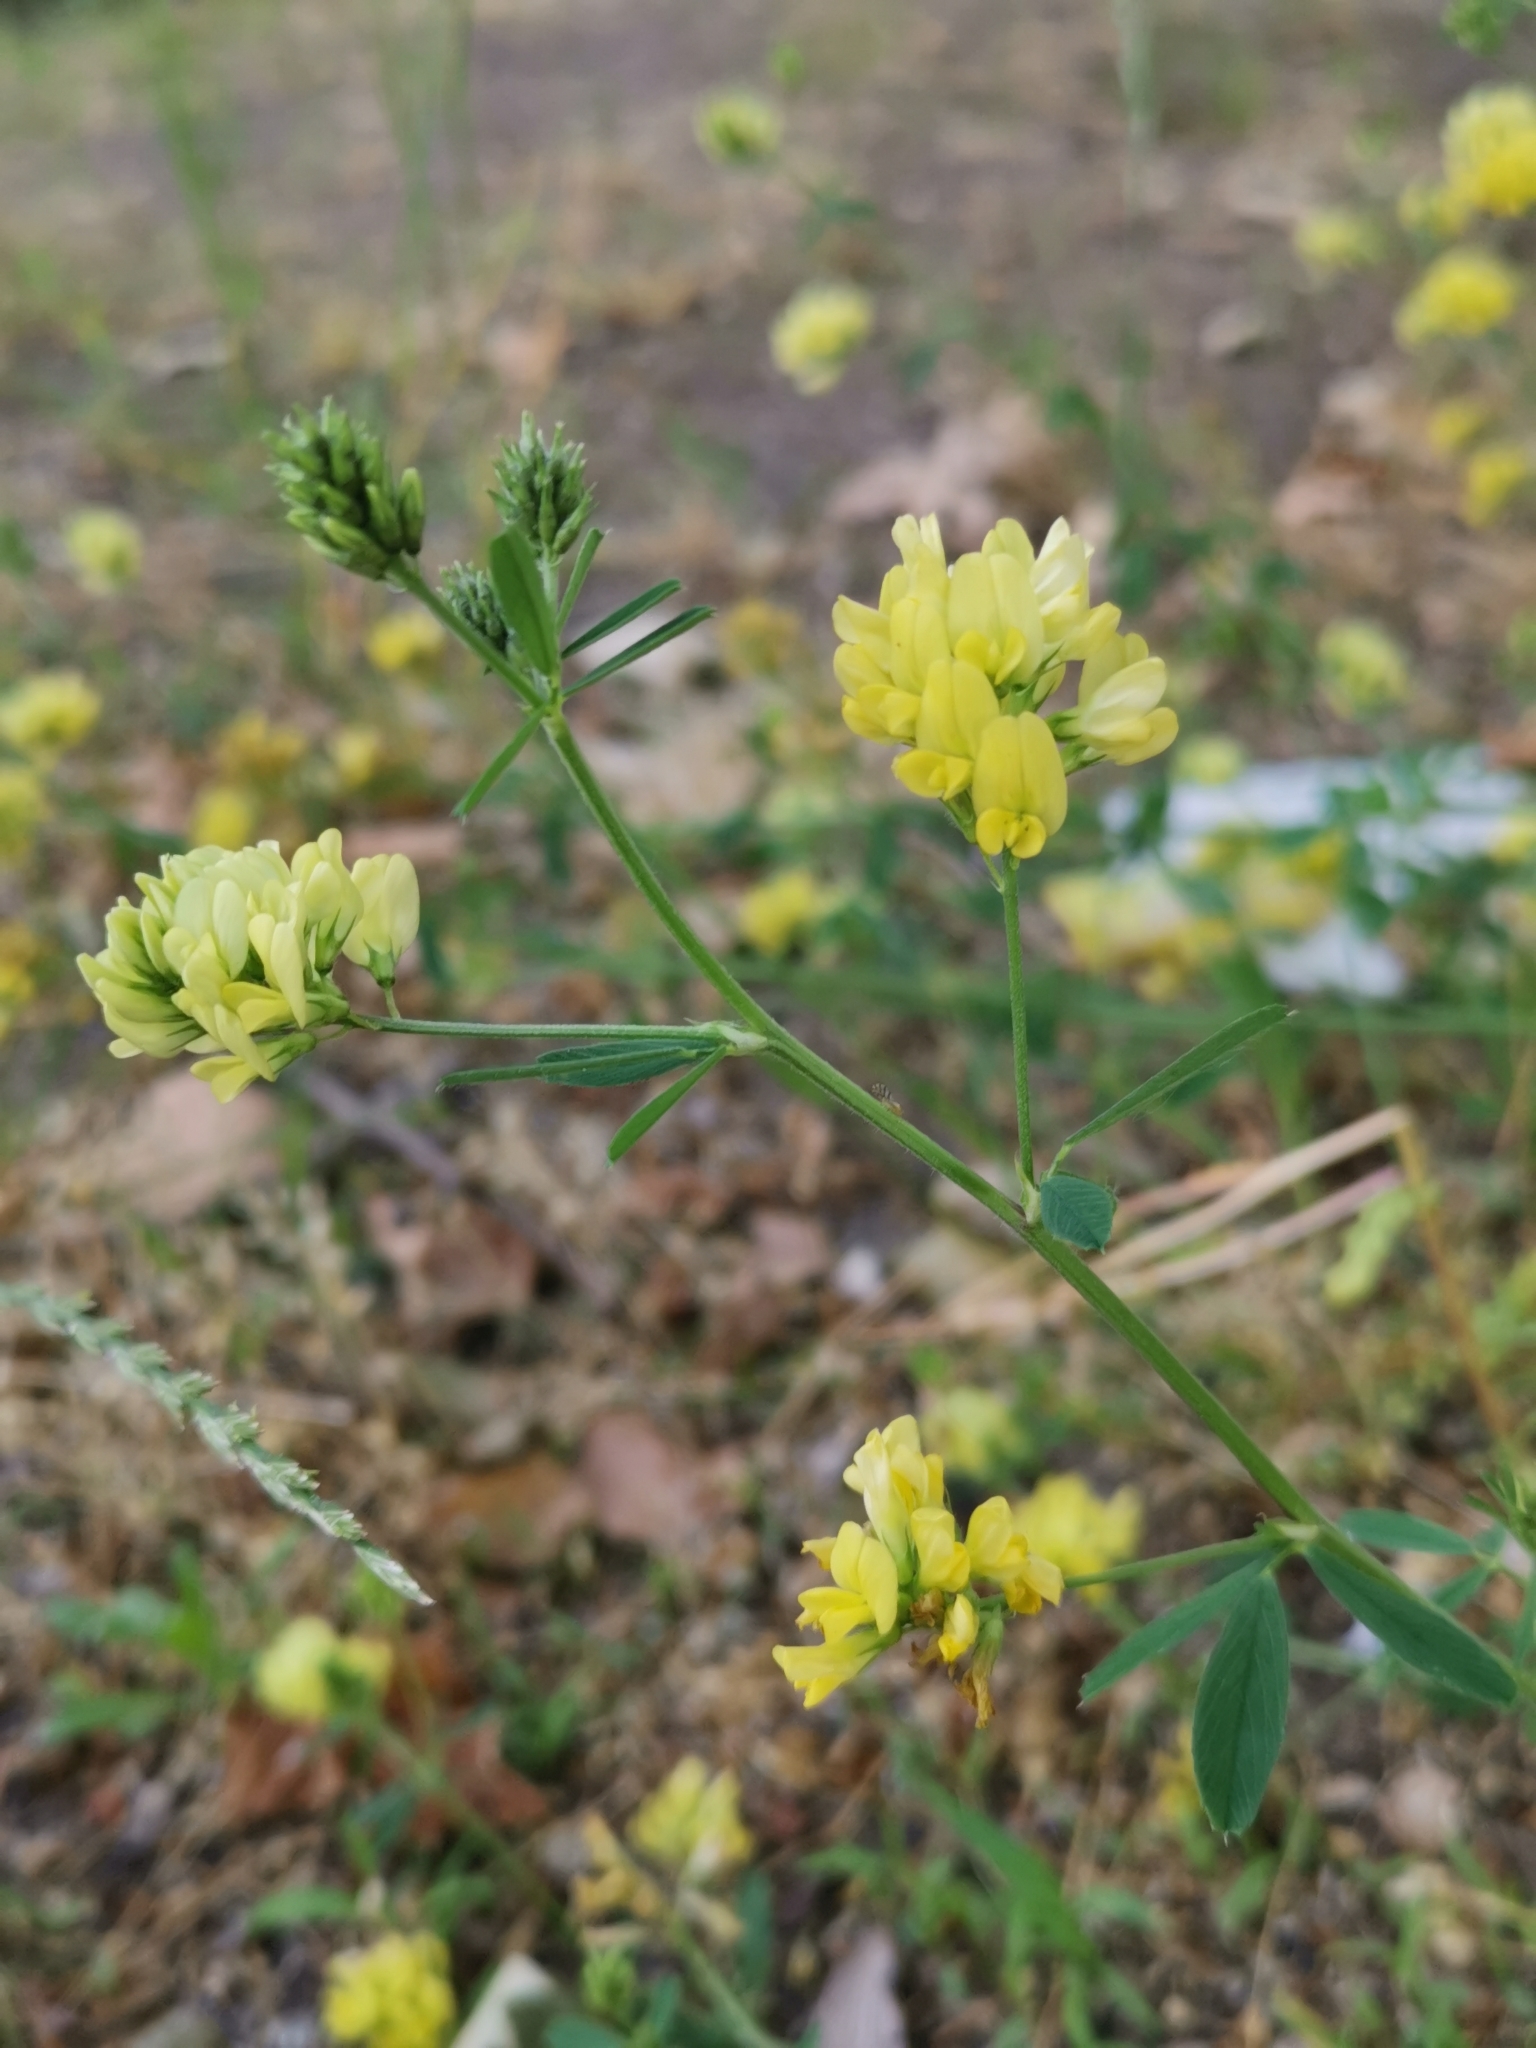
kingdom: Plantae
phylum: Tracheophyta
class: Magnoliopsida
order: Fabales
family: Fabaceae
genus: Medicago
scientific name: Medicago falcata
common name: Sickle medick
